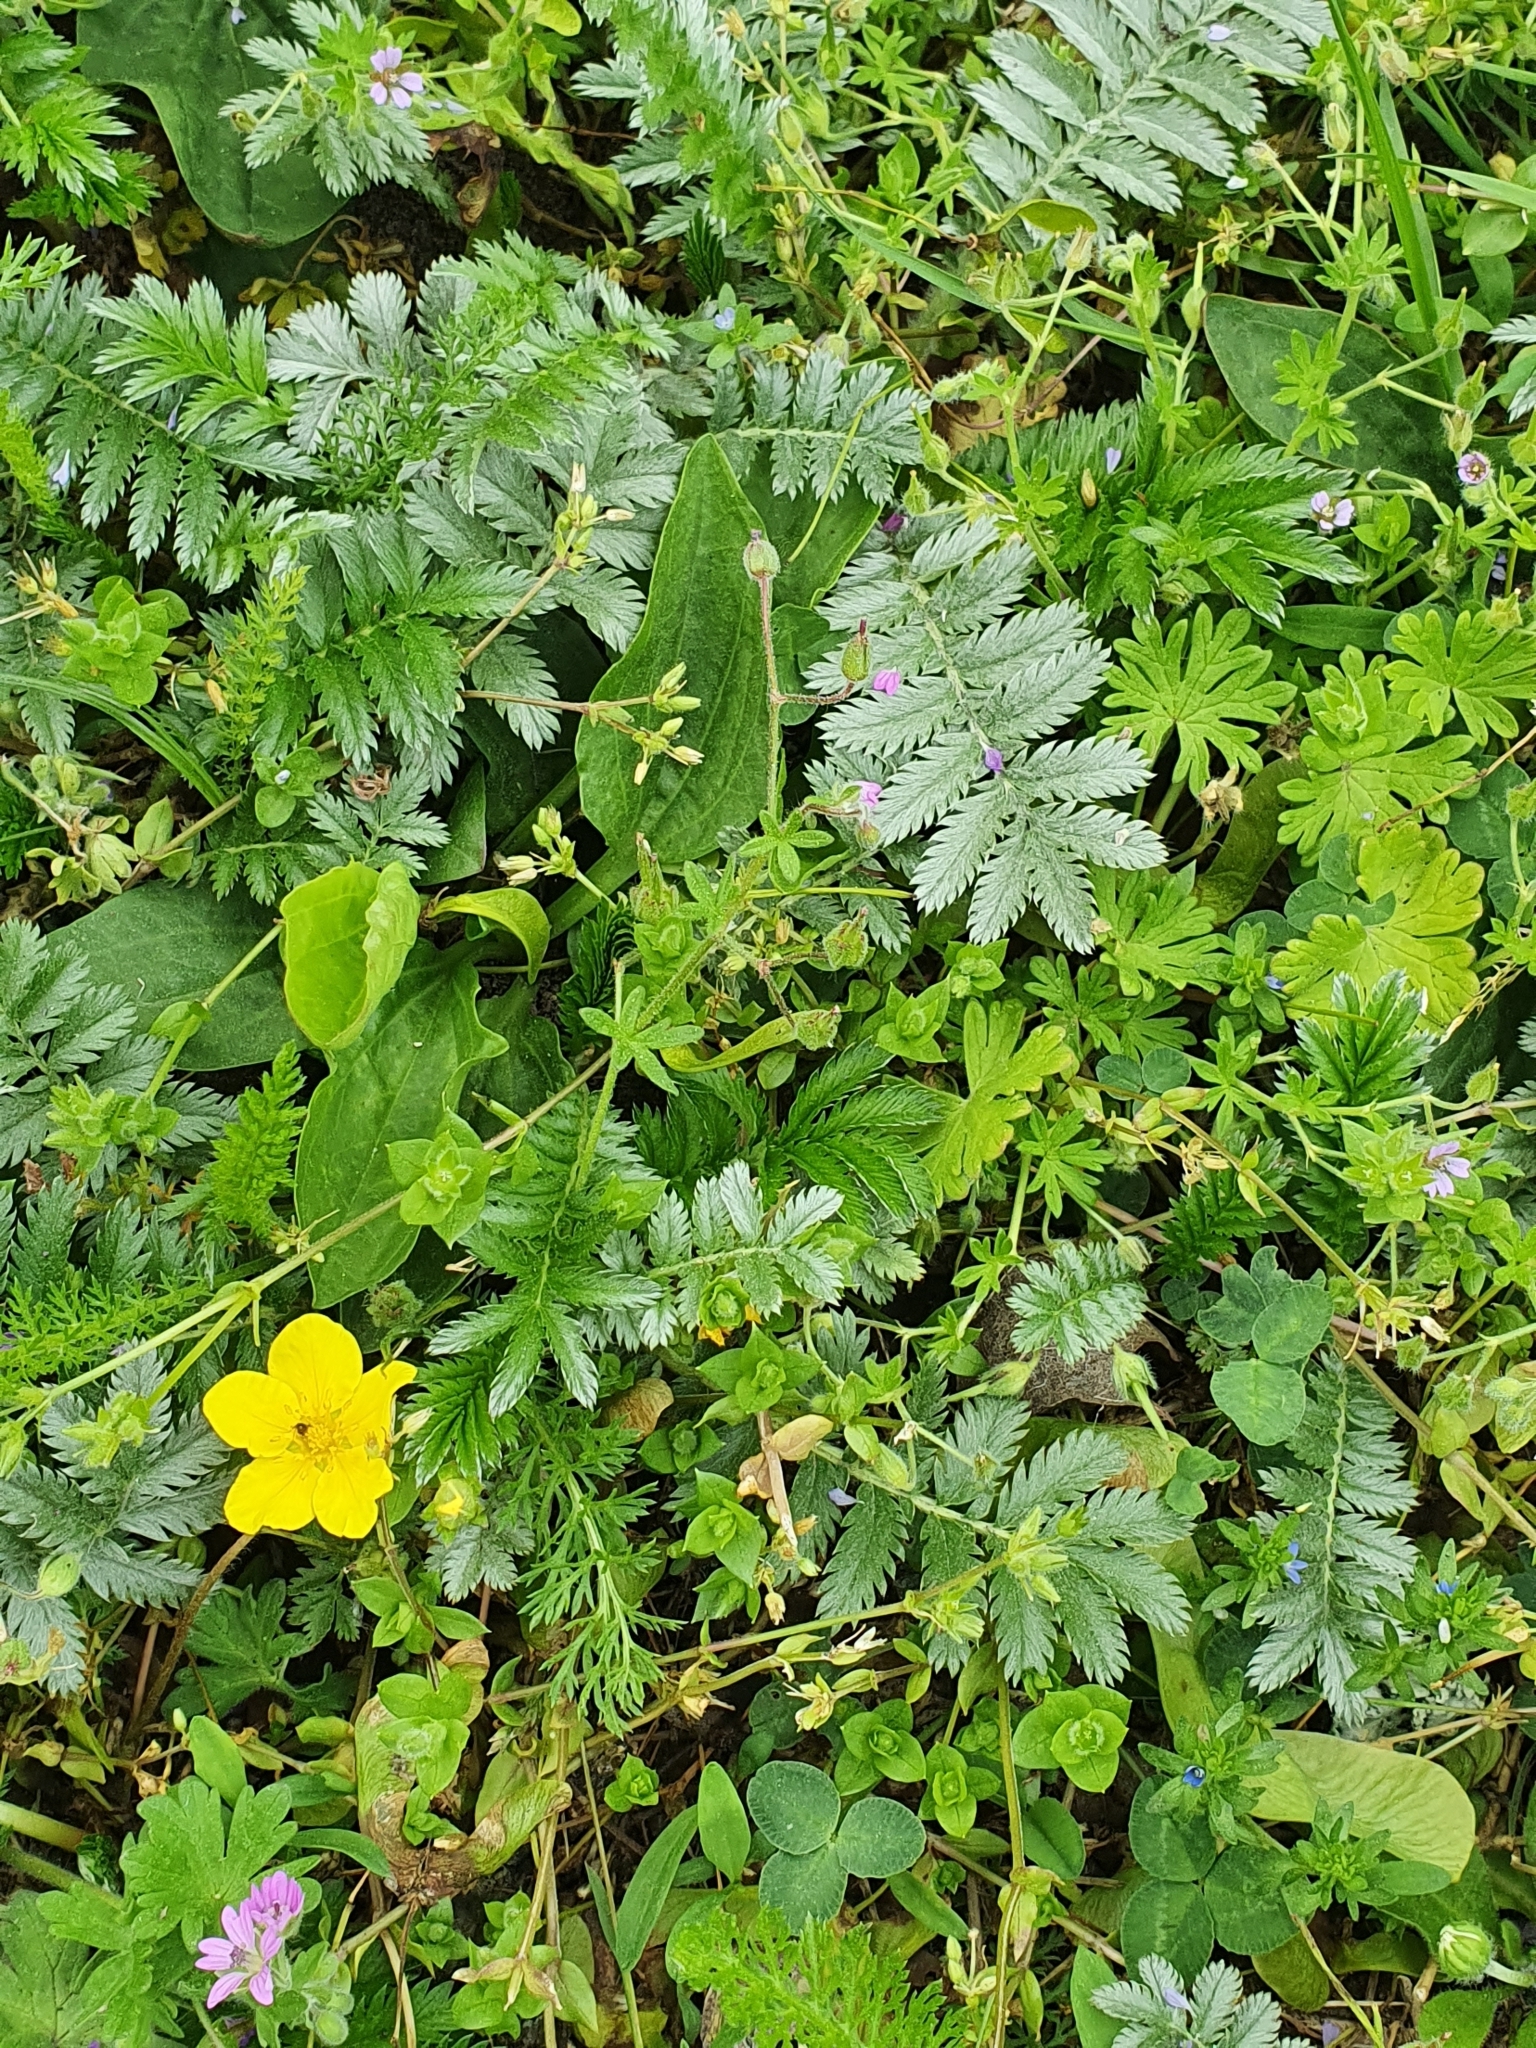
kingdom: Plantae
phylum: Tracheophyta
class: Magnoliopsida
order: Rosales
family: Rosaceae
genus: Argentina
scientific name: Argentina anserina
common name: Common silverweed
